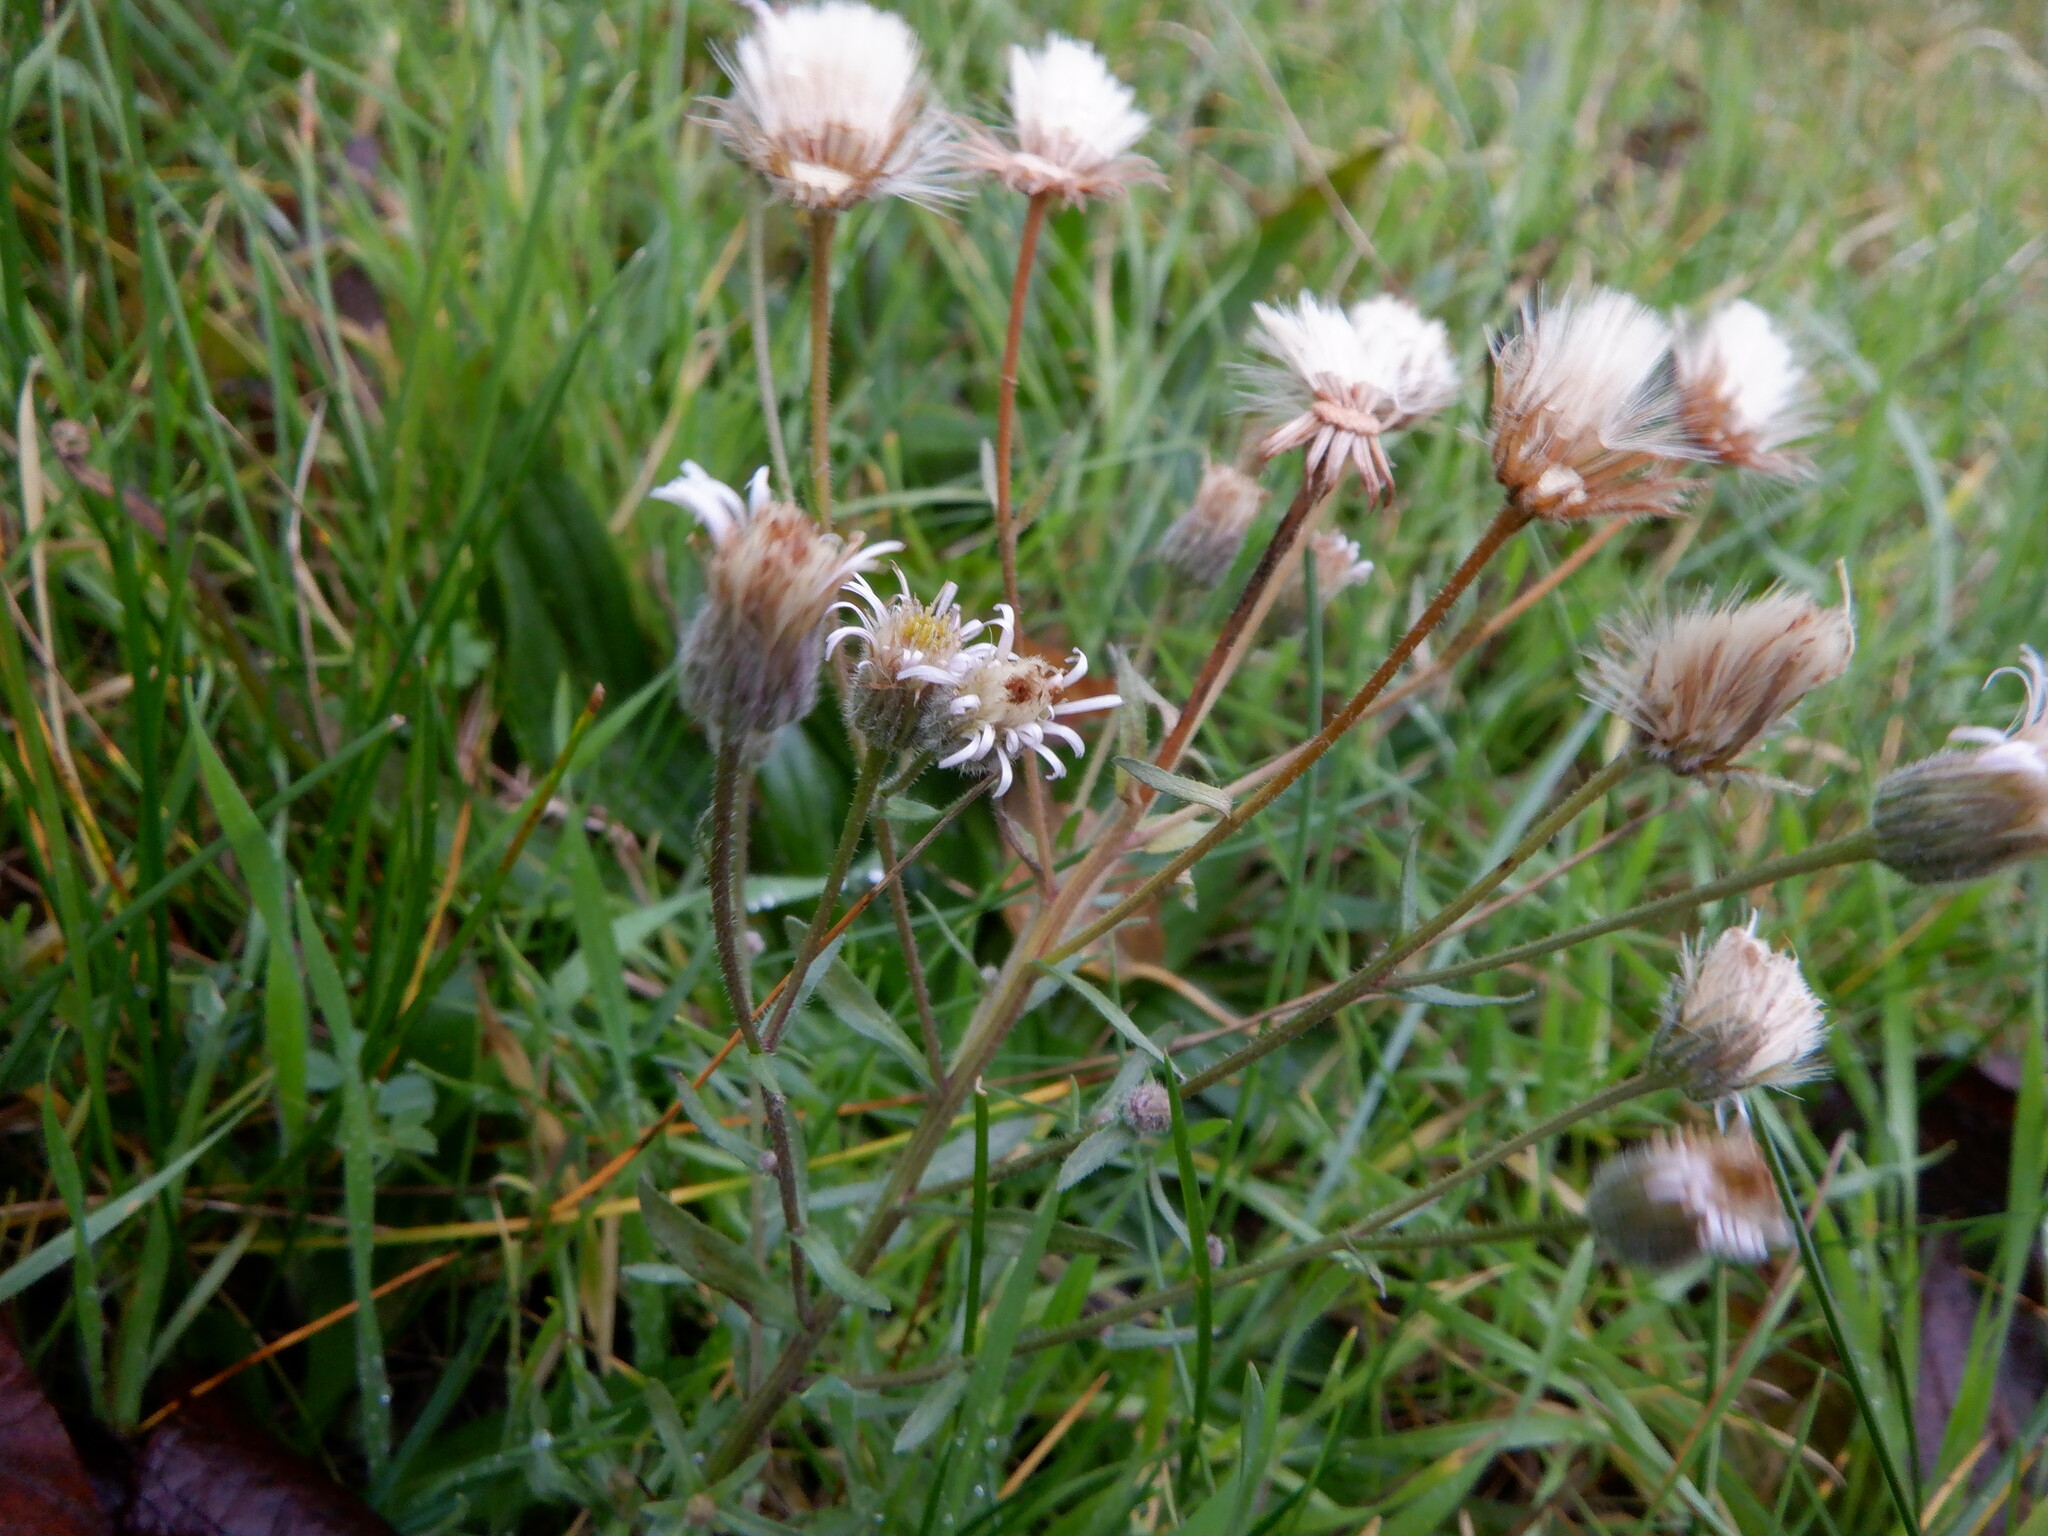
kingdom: Plantae
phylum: Tracheophyta
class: Magnoliopsida
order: Asterales
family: Asteraceae
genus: Erigeron
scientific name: Erigeron acris
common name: Blue fleabane
